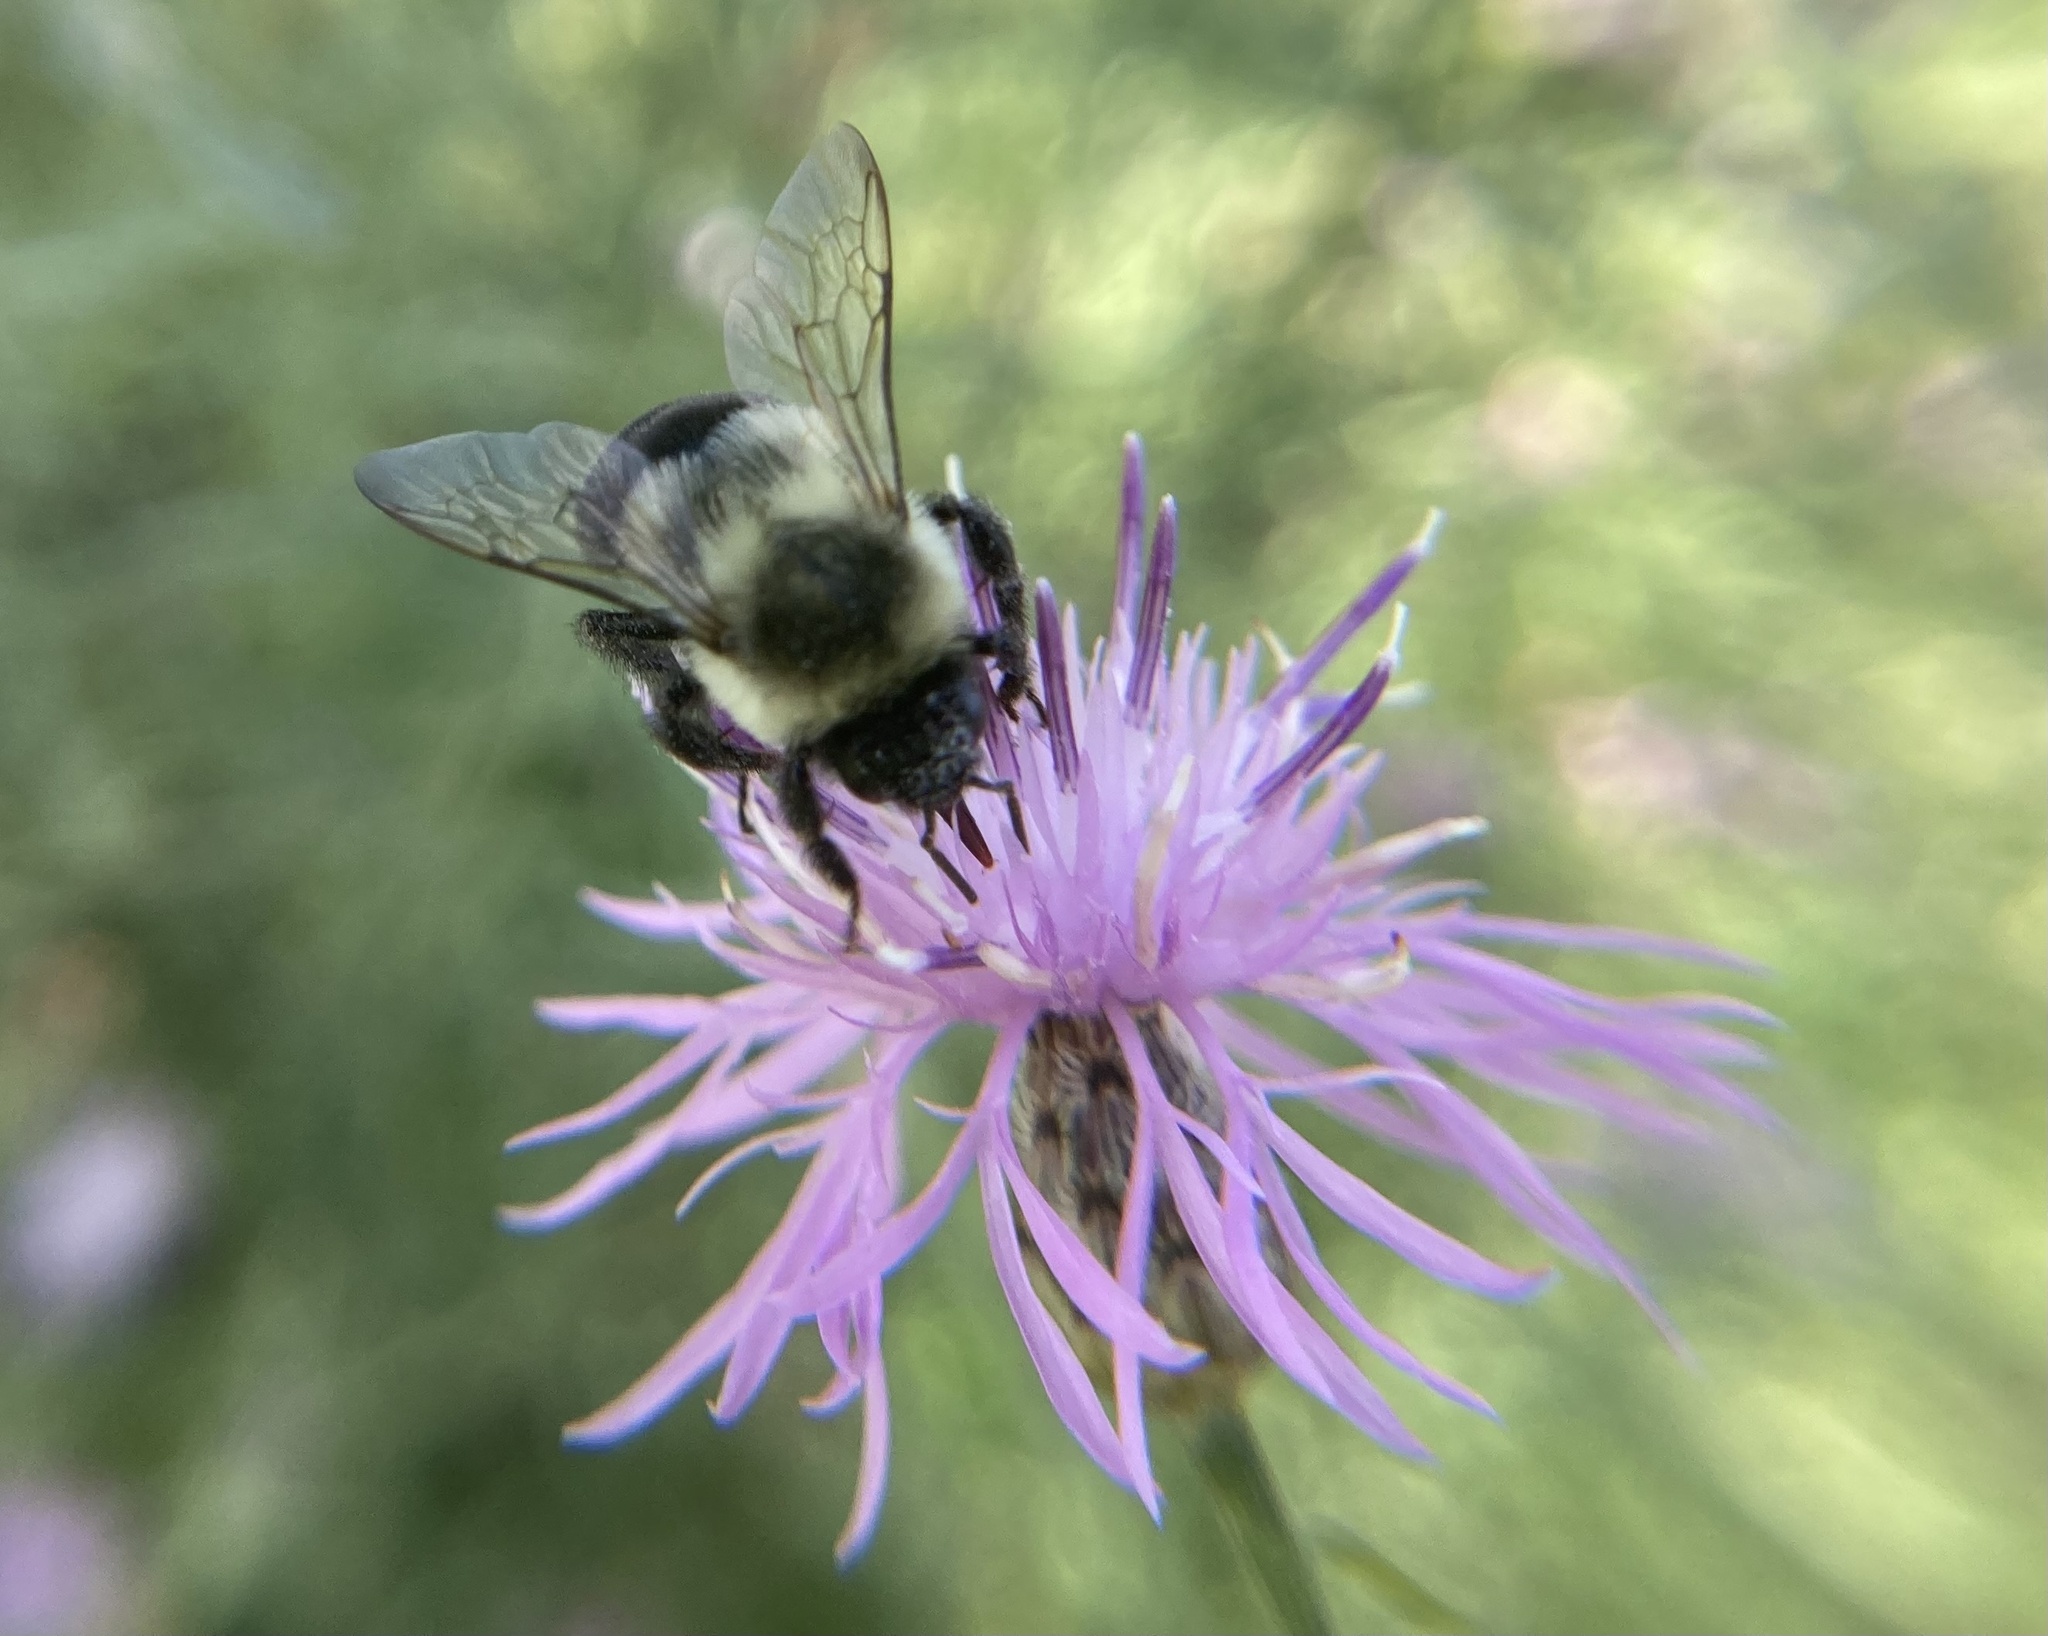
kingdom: Animalia
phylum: Arthropoda
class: Insecta
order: Hymenoptera
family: Apidae
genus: Bombus
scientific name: Bombus impatiens
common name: Common eastern bumble bee
